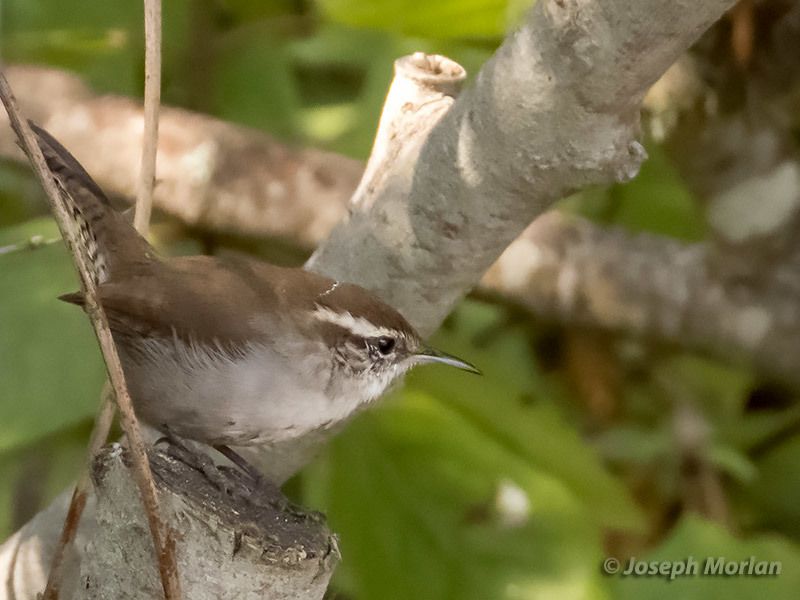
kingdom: Animalia
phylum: Chordata
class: Aves
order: Passeriformes
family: Troglodytidae
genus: Thryomanes
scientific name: Thryomanes bewickii
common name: Bewick's wren
